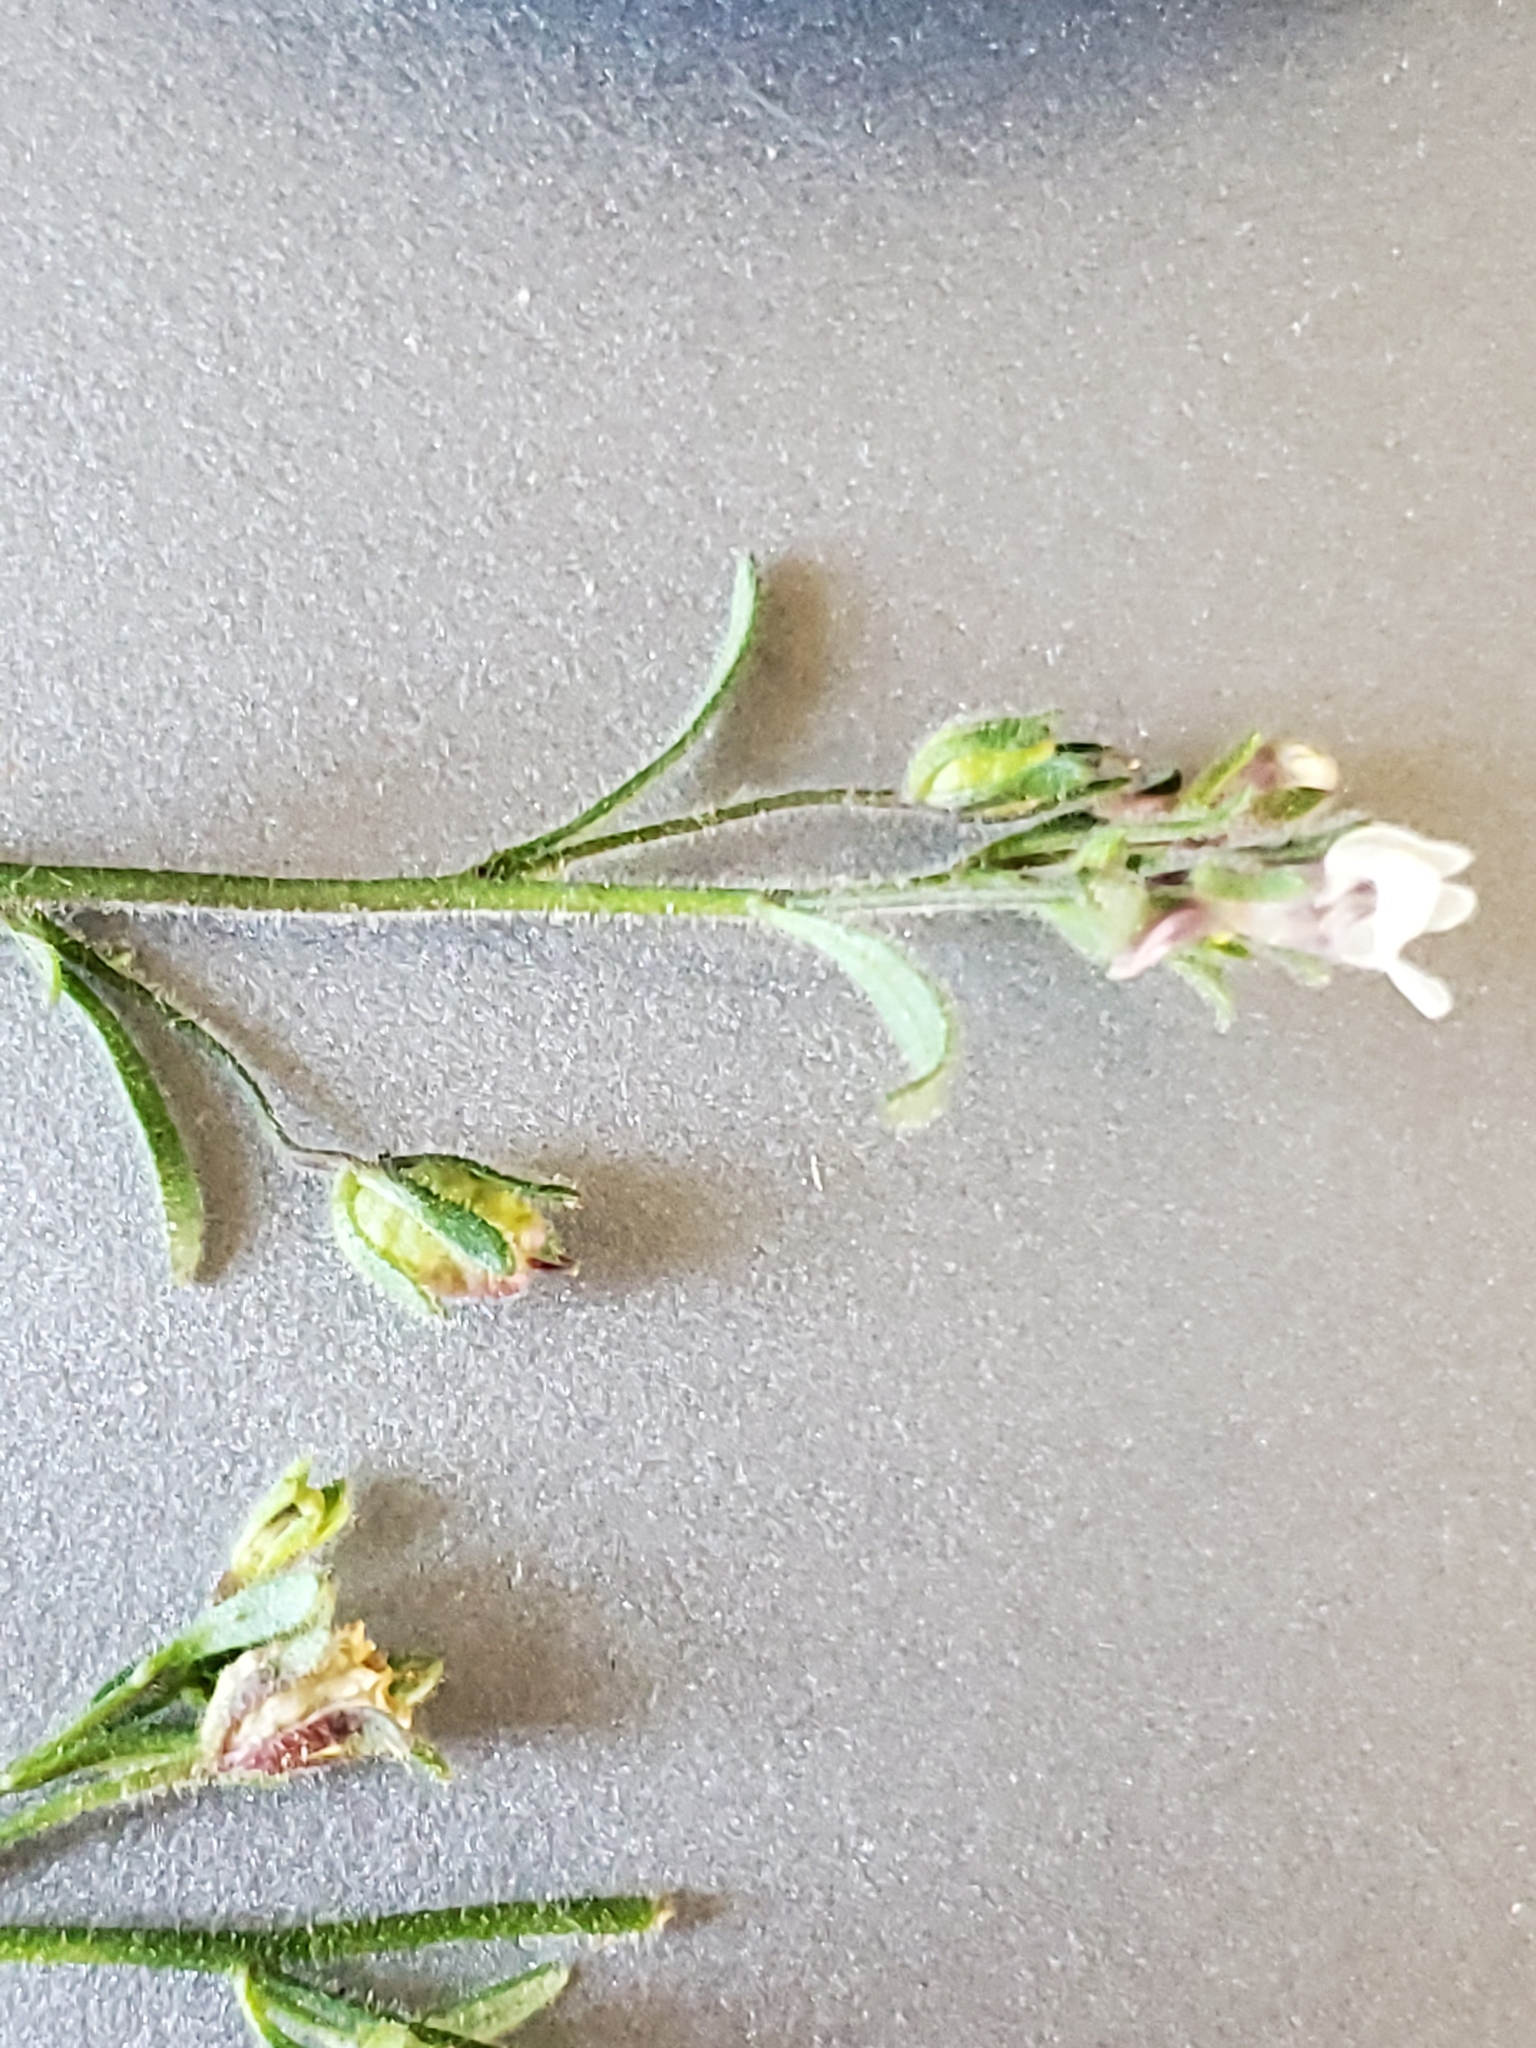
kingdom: Plantae
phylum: Tracheophyta
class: Magnoliopsida
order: Lamiales
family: Plantaginaceae
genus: Chaenorhinum
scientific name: Chaenorhinum minus
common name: Dwarf snapdragon
